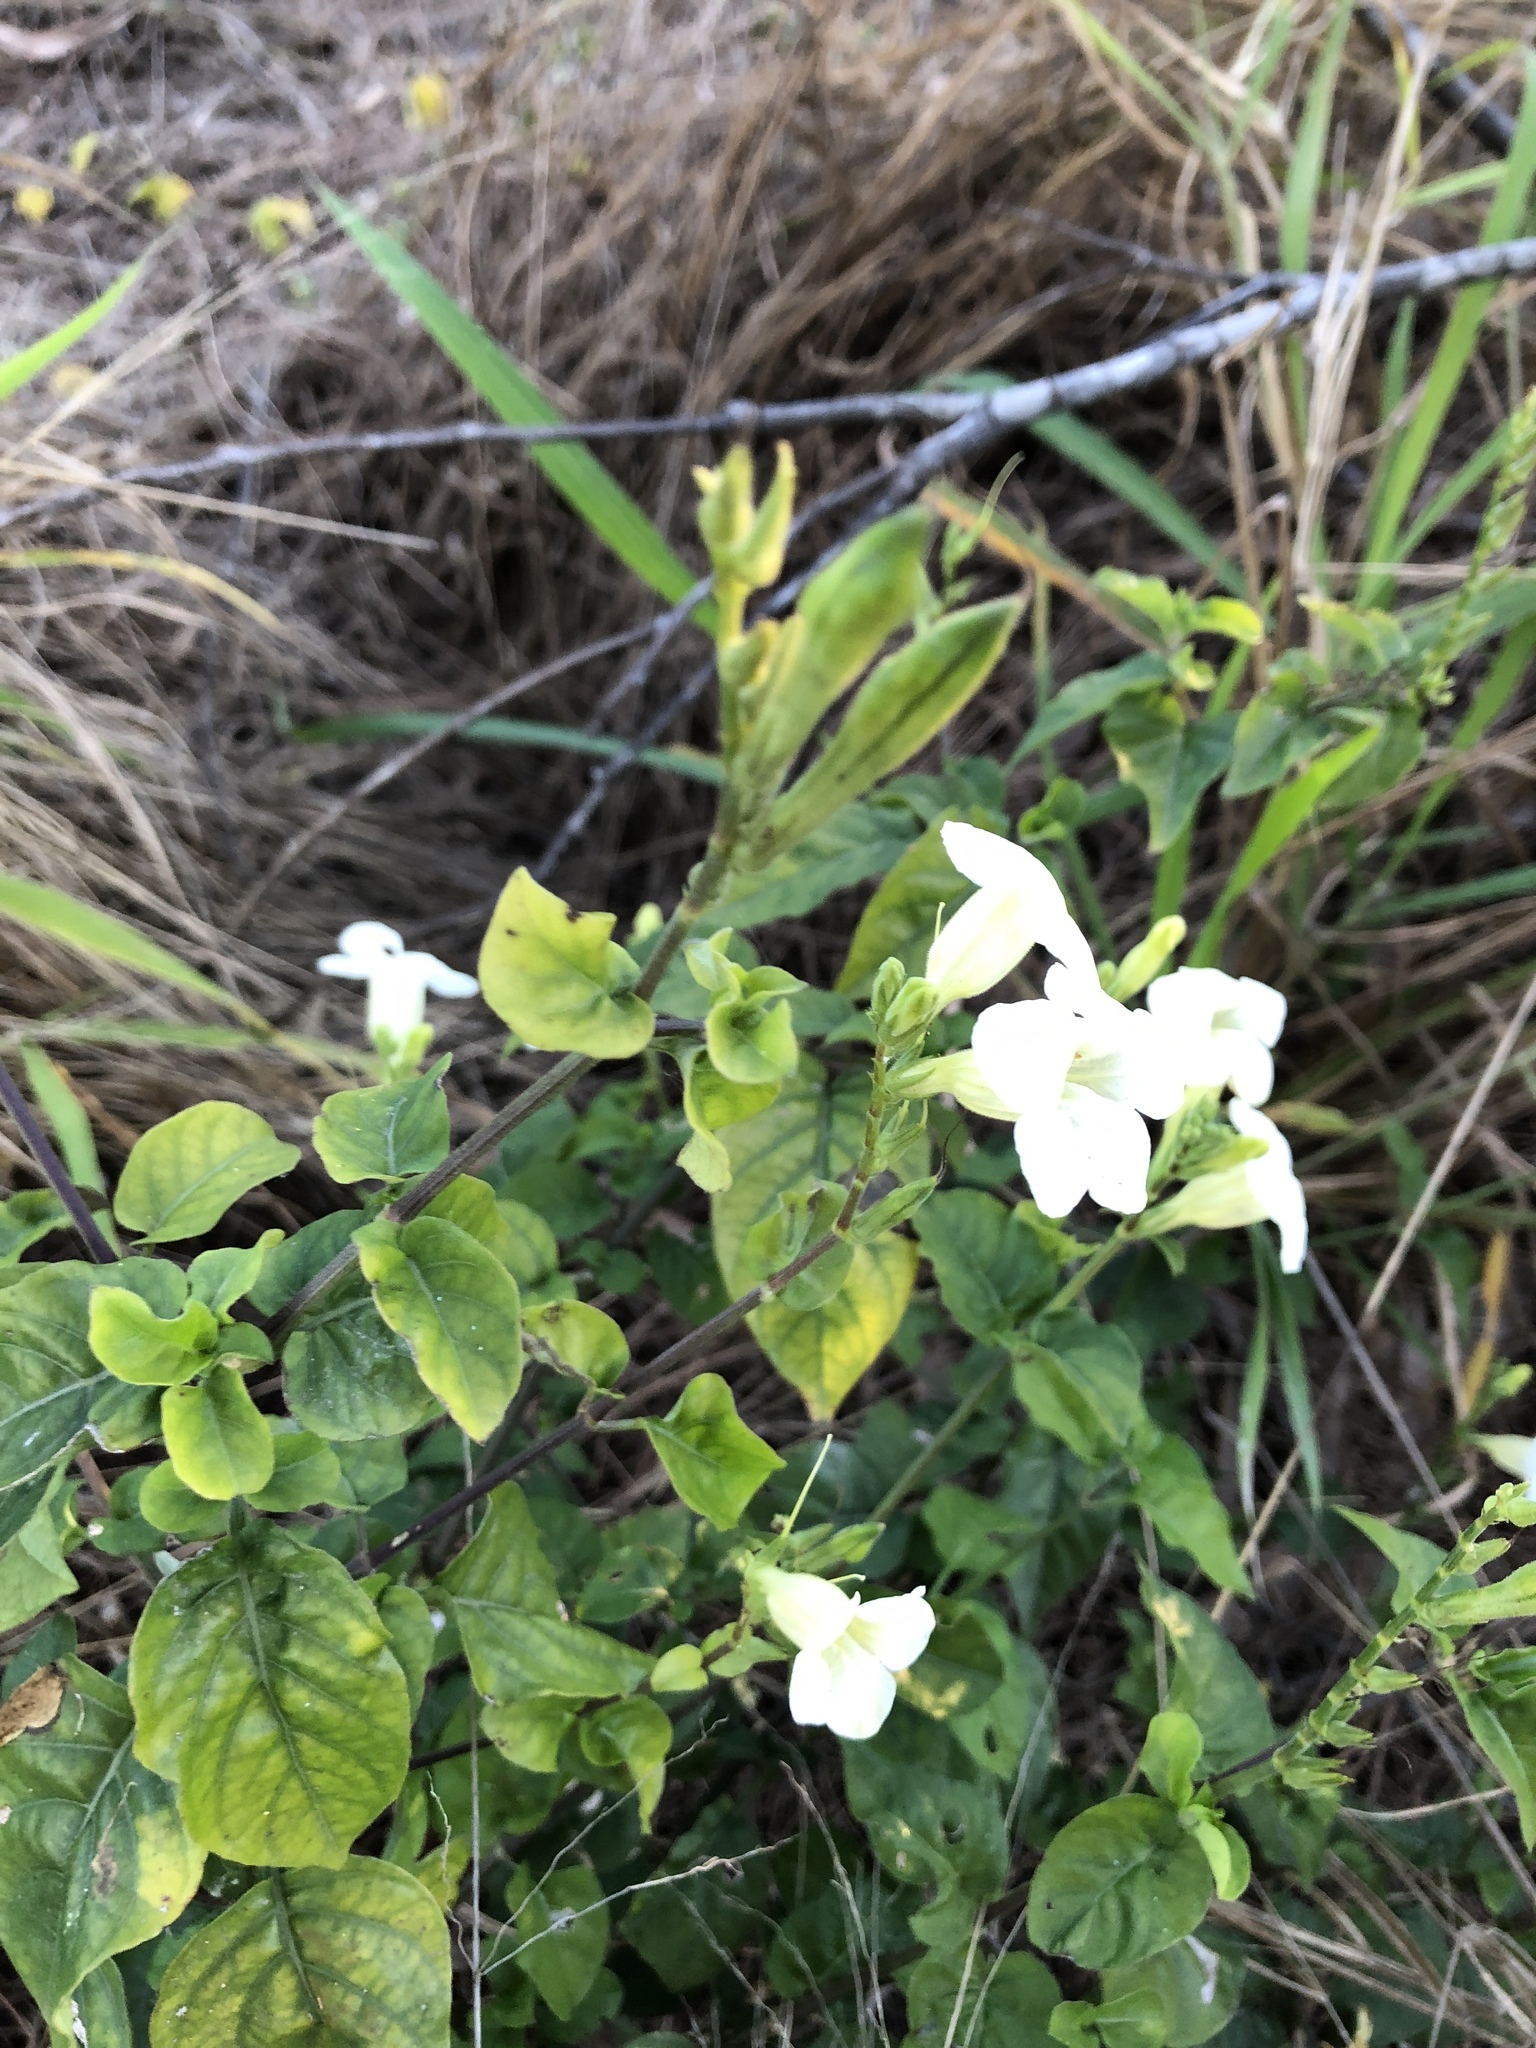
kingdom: Plantae
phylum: Tracheophyta
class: Magnoliopsida
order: Lamiales
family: Acanthaceae
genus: Asystasia
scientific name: Asystasia gangetica
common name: Chinese violet
